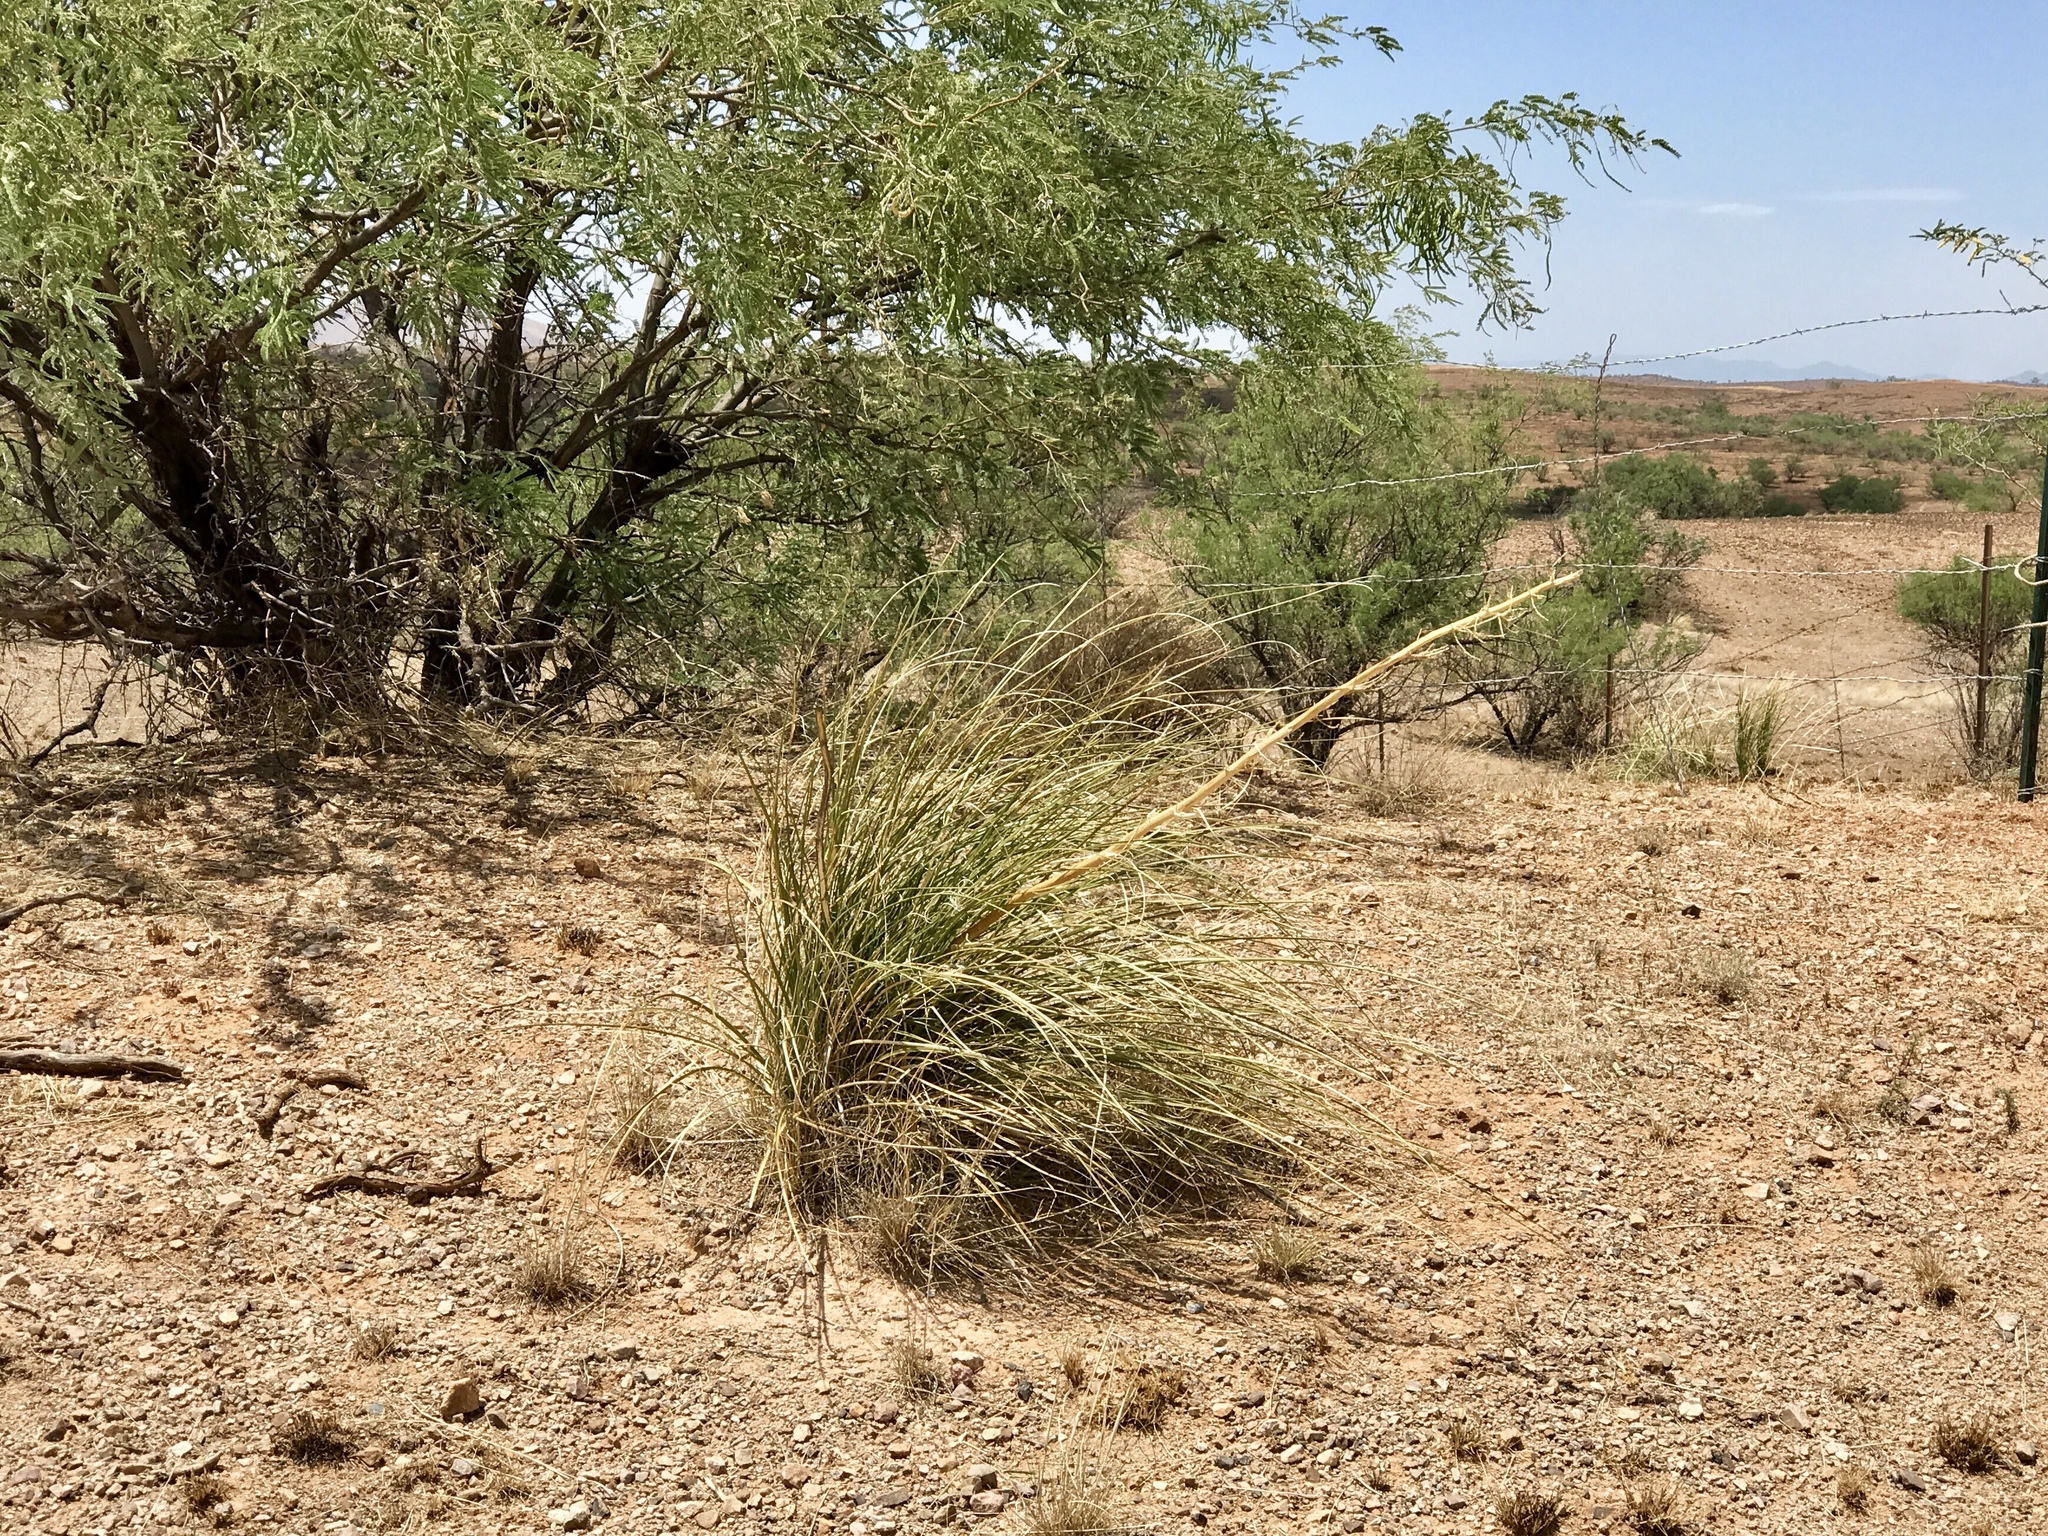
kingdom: Plantae
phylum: Tracheophyta
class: Liliopsida
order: Asparagales
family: Asparagaceae
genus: Nolina
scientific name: Nolina microcarpa
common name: Bear-grass
